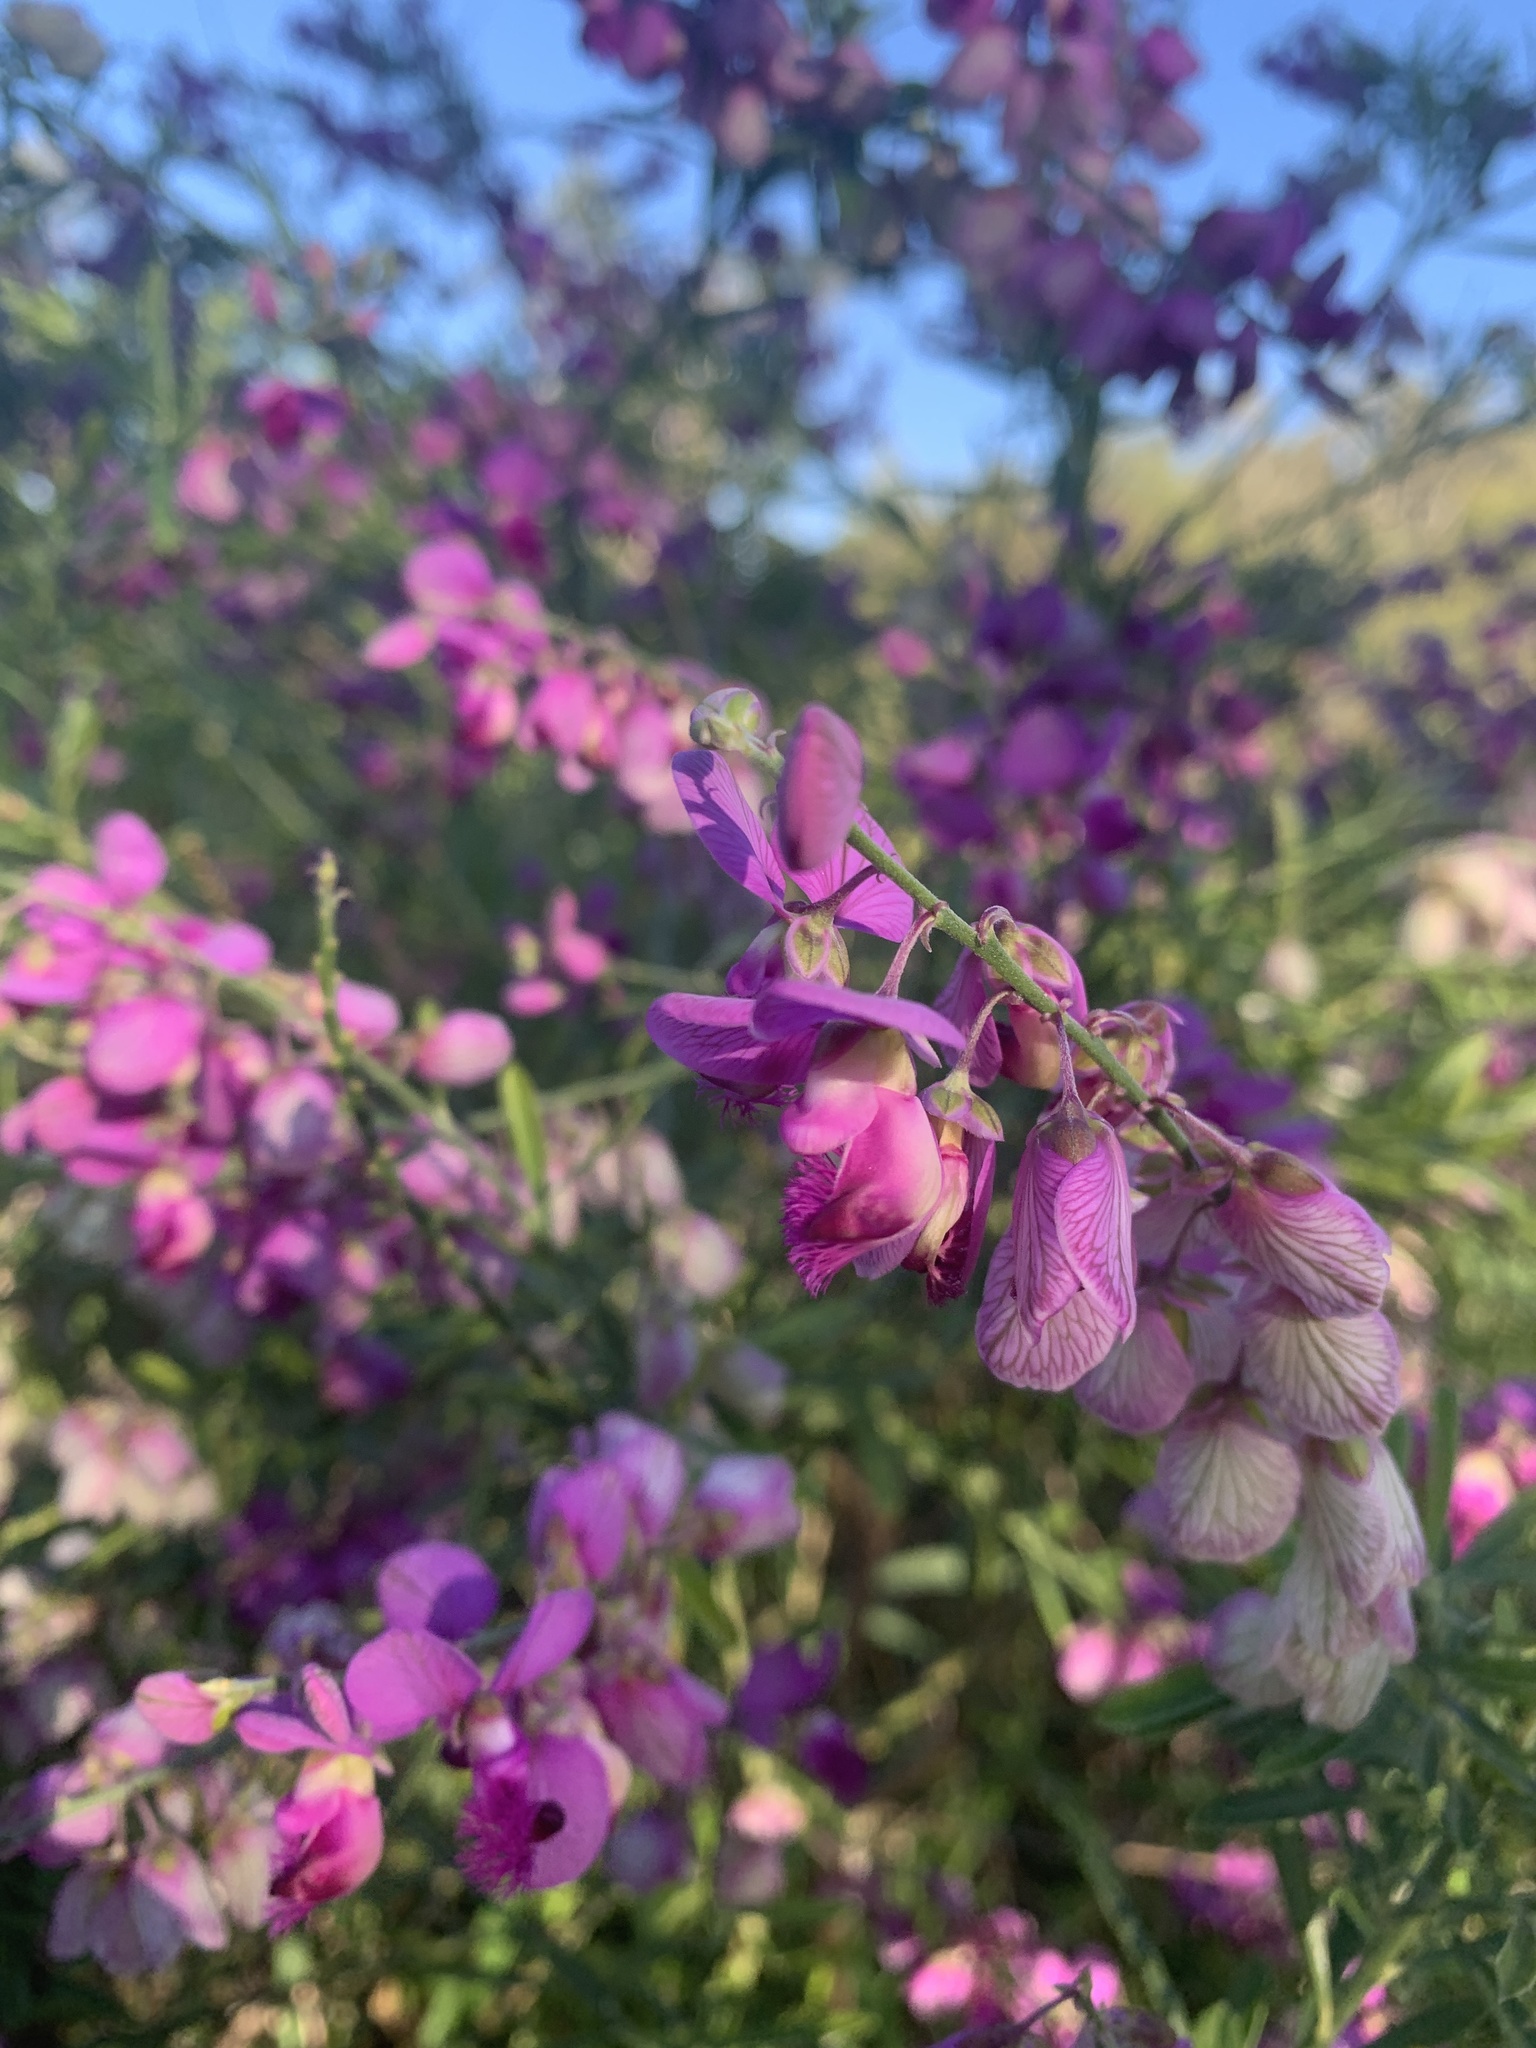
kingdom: Plantae
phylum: Tracheophyta
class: Magnoliopsida
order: Fabales
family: Polygalaceae
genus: Polygala
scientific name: Polygala virgata
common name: Milkwort
